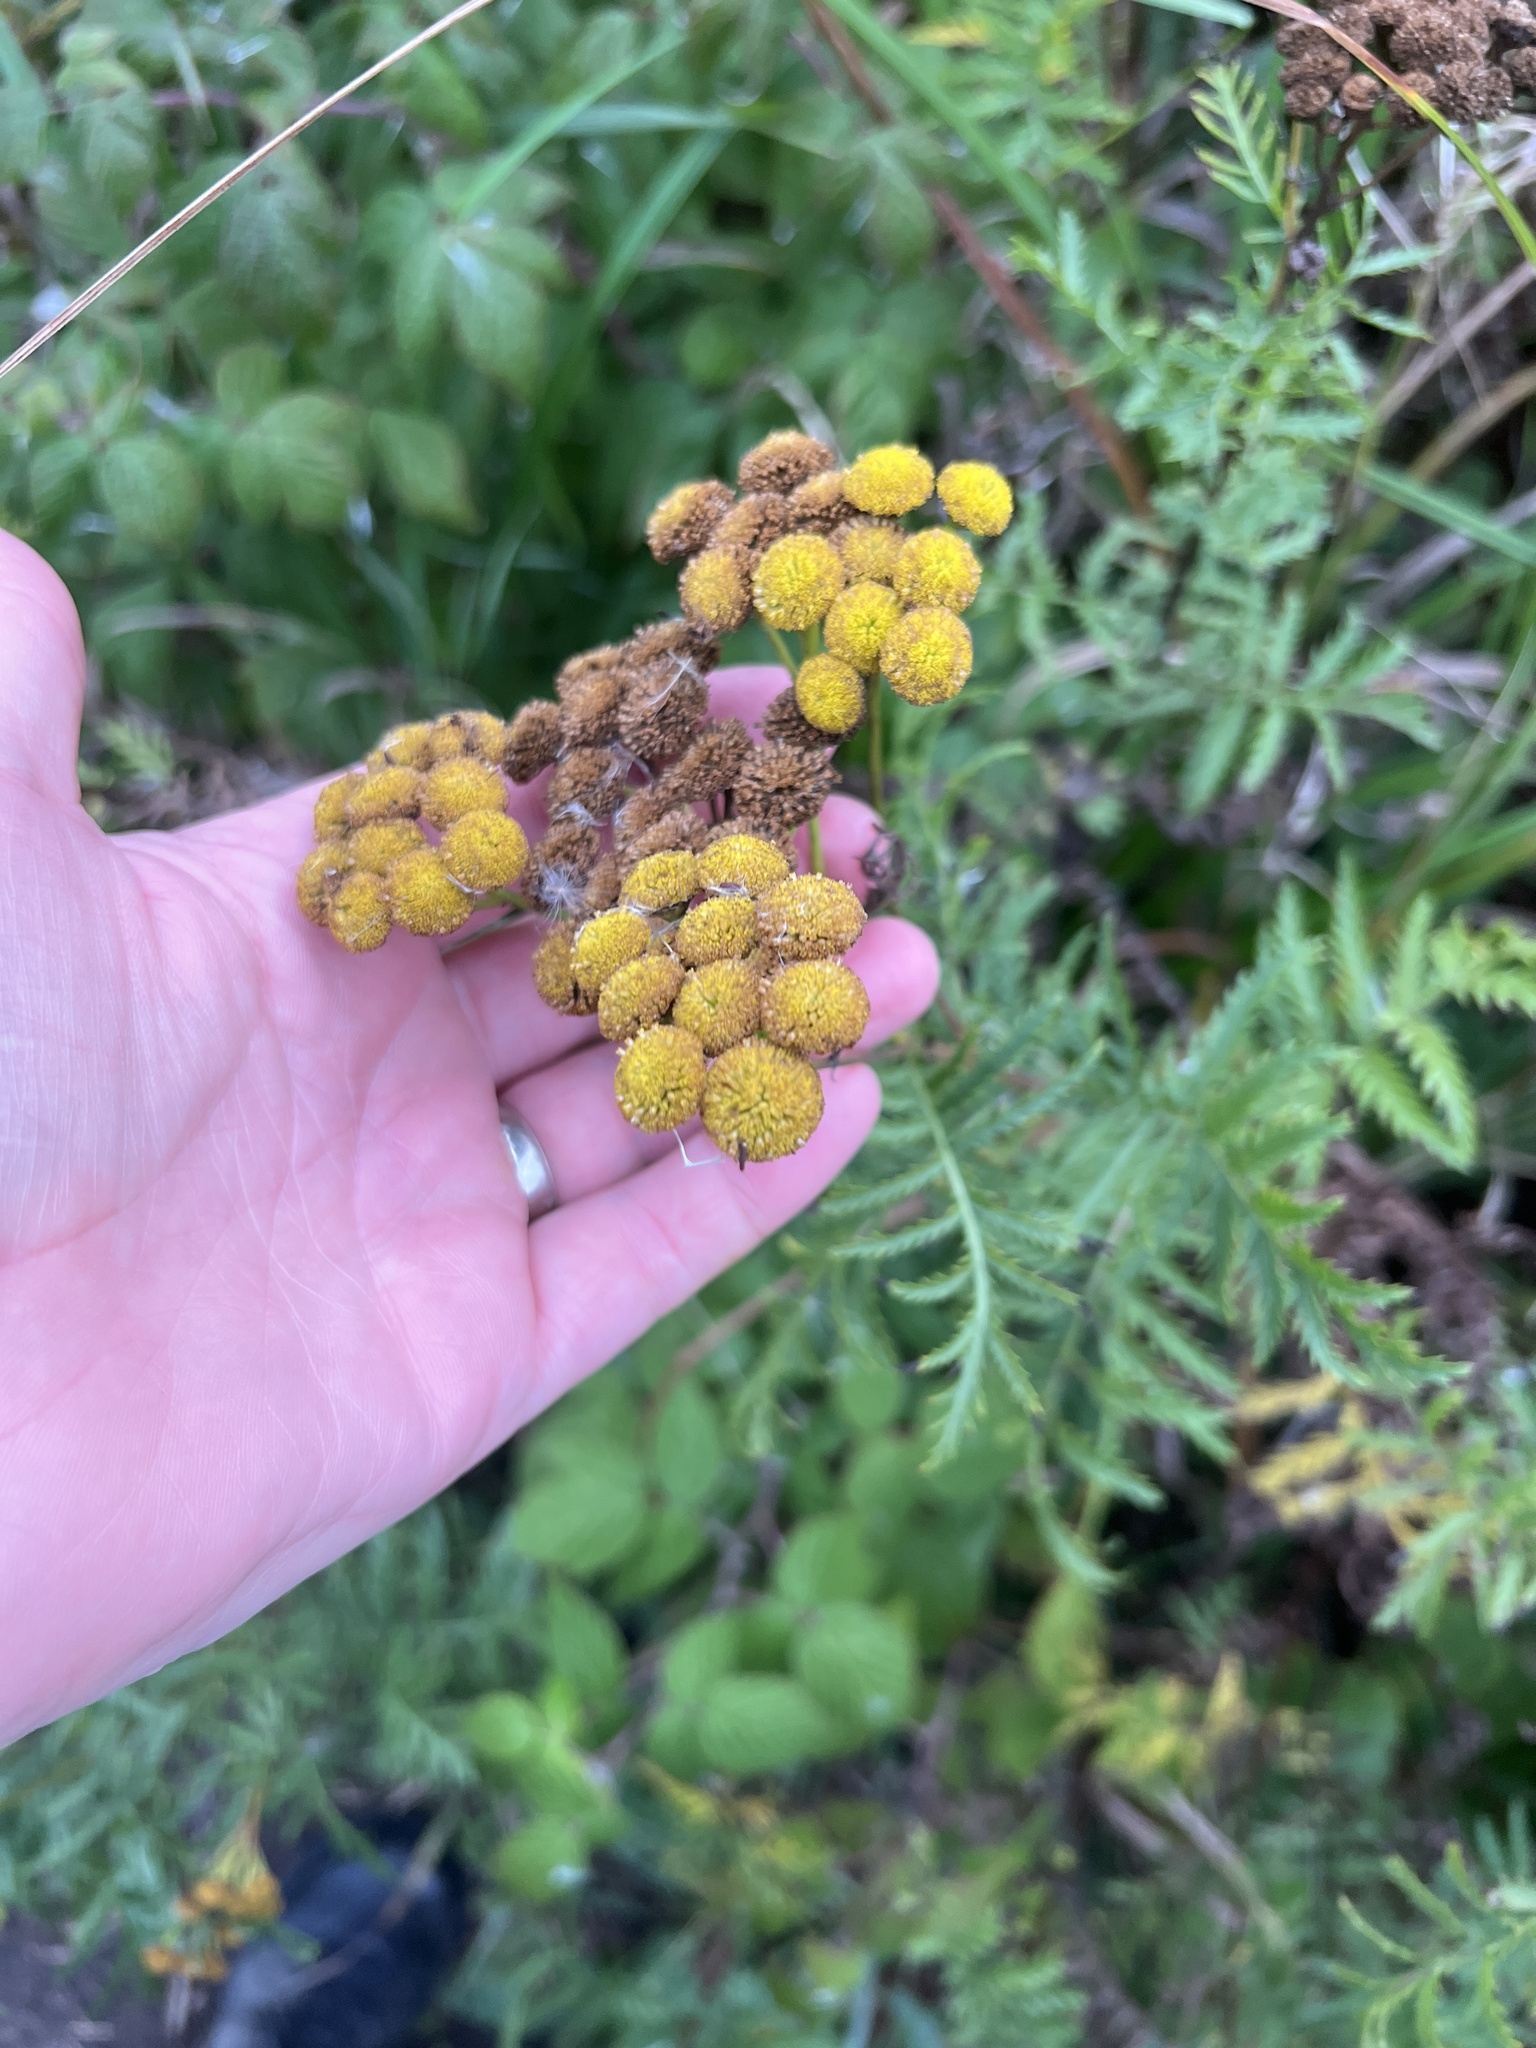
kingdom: Plantae
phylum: Tracheophyta
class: Magnoliopsida
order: Asterales
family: Asteraceae
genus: Tanacetum
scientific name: Tanacetum vulgare
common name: Common tansy
